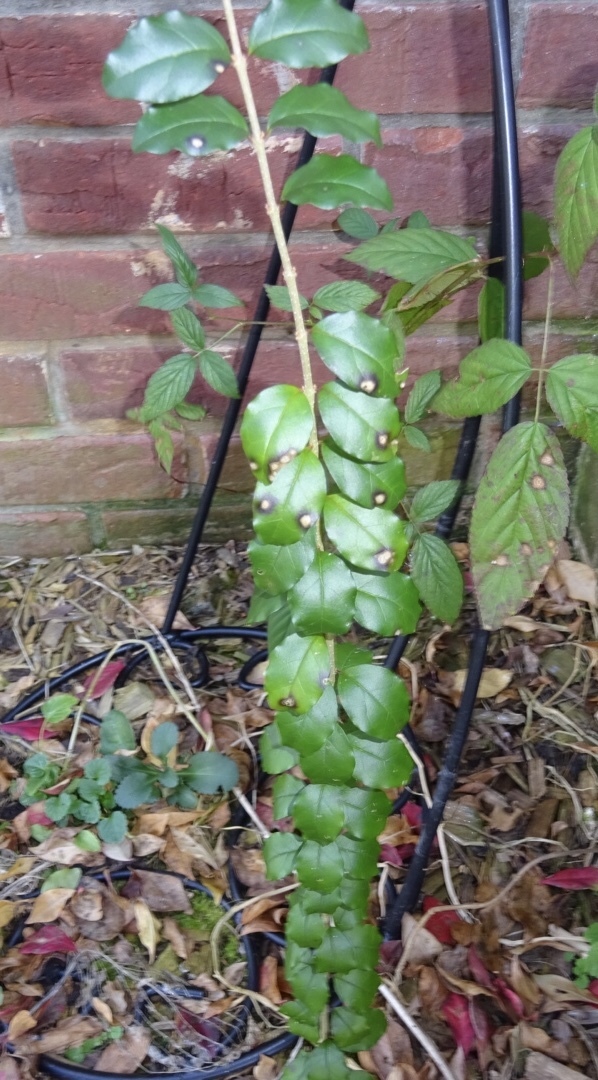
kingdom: Plantae
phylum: Tracheophyta
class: Magnoliopsida
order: Lamiales
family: Oleaceae
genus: Ligustrum
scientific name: Ligustrum sinense
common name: Chinese privet
